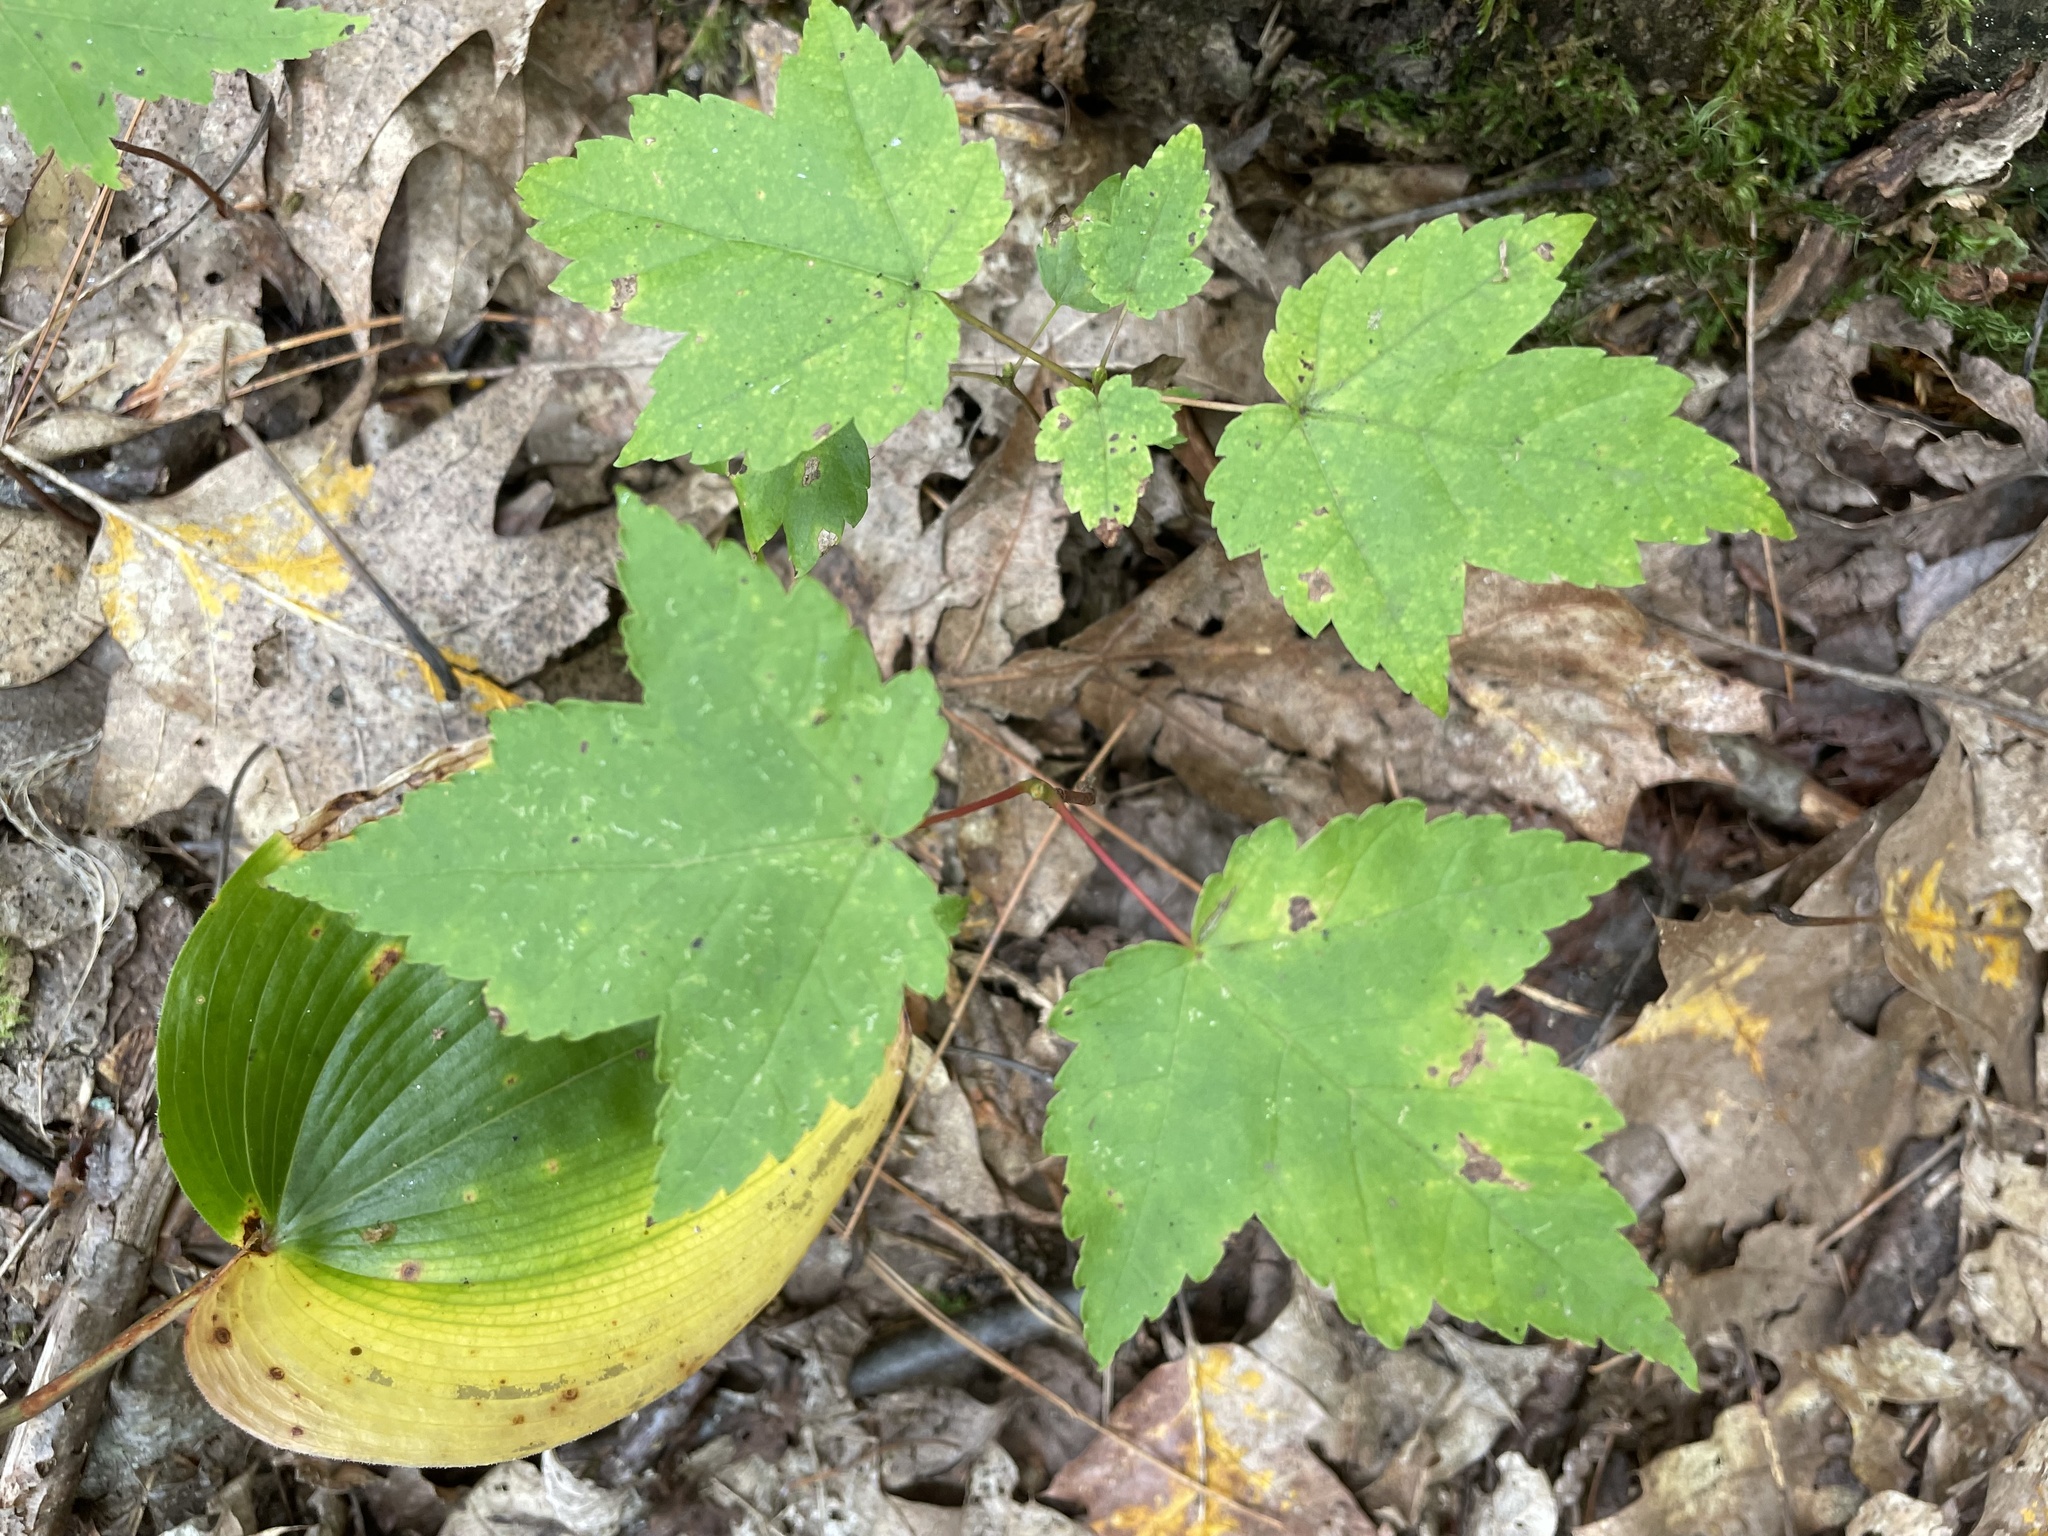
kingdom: Plantae
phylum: Tracheophyta
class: Magnoliopsida
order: Sapindales
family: Sapindaceae
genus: Acer
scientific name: Acer rubrum
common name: Red maple
